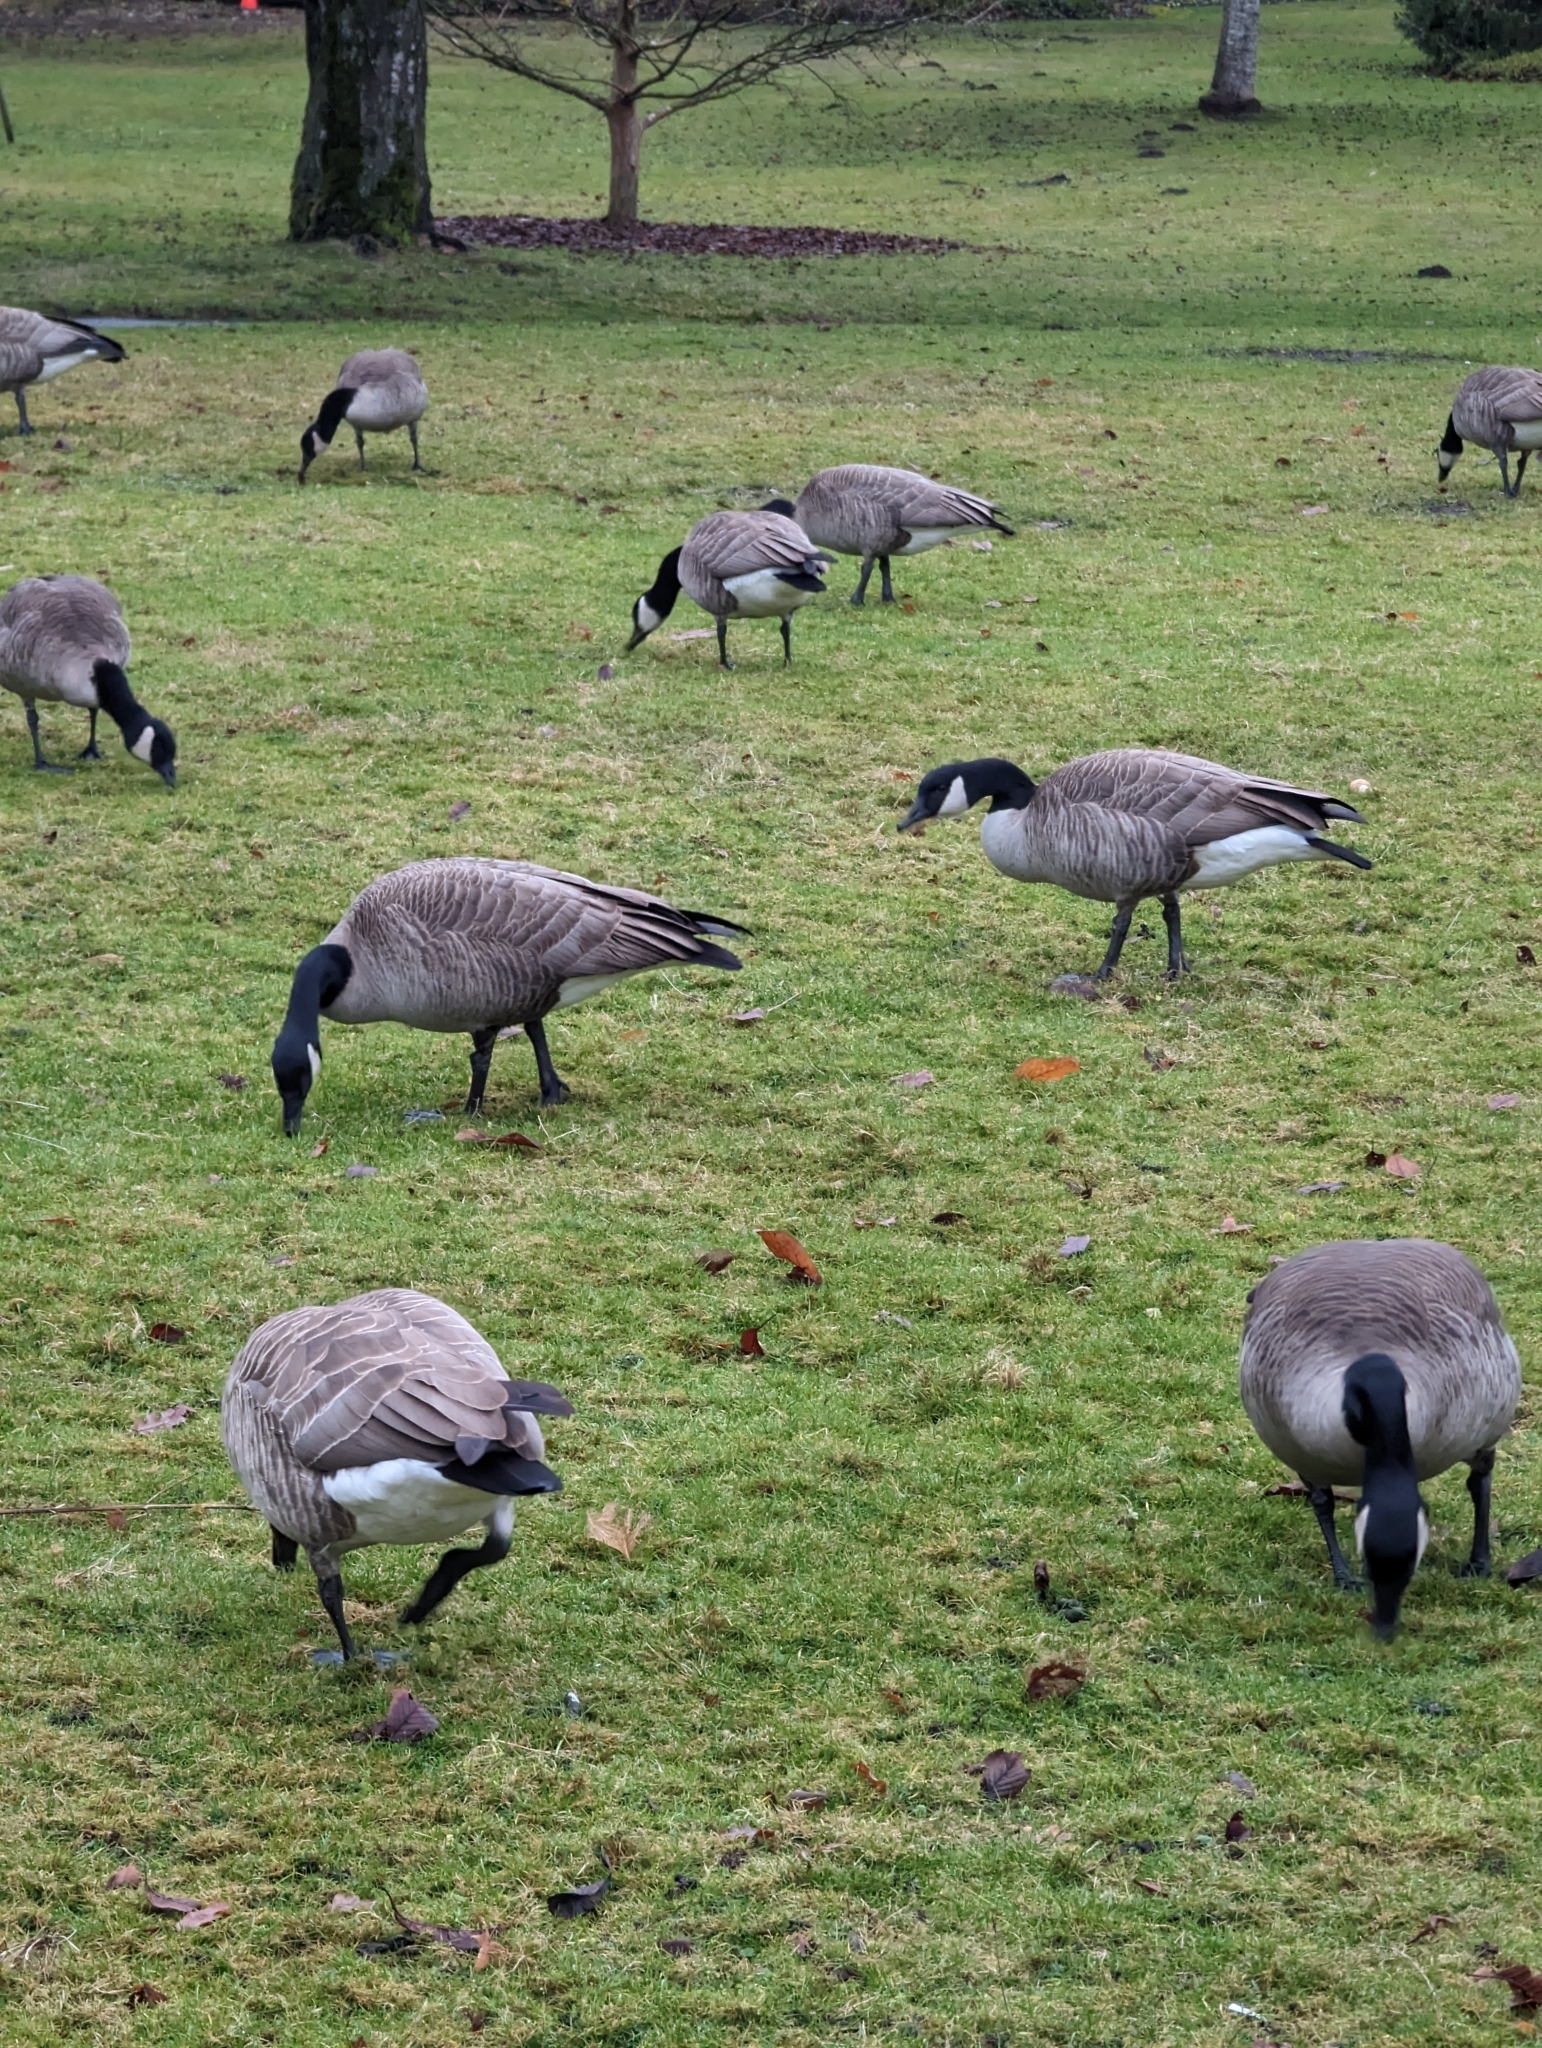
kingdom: Animalia
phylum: Chordata
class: Aves
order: Anseriformes
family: Anatidae
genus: Branta
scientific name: Branta canadensis
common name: Canada goose
